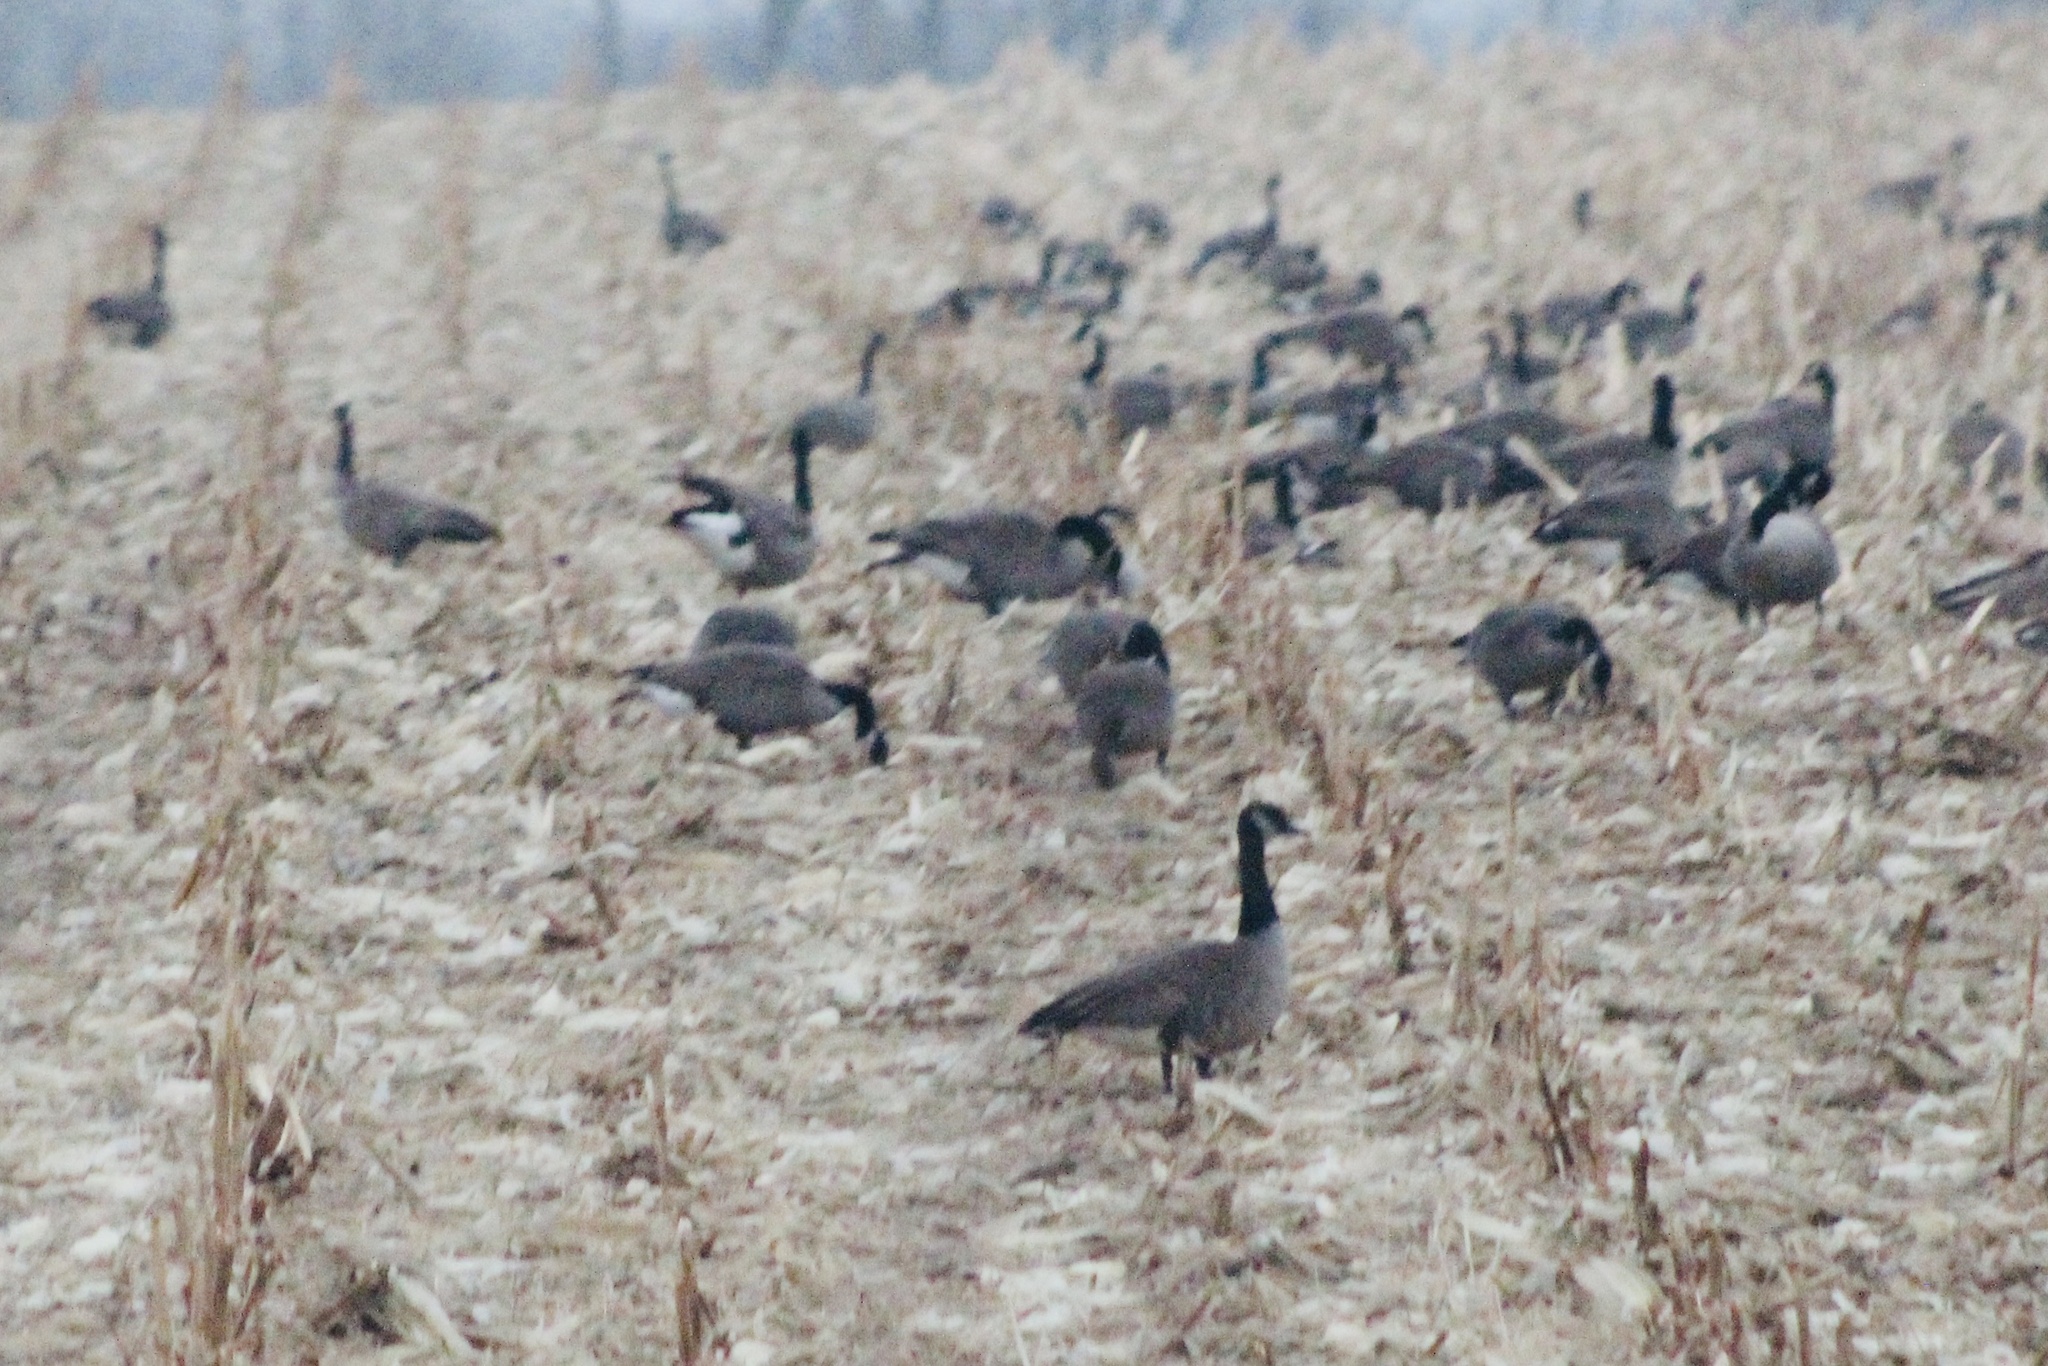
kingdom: Animalia
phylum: Chordata
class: Aves
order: Anseriformes
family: Anatidae
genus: Branta
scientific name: Branta hutchinsii
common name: Cackling goose
